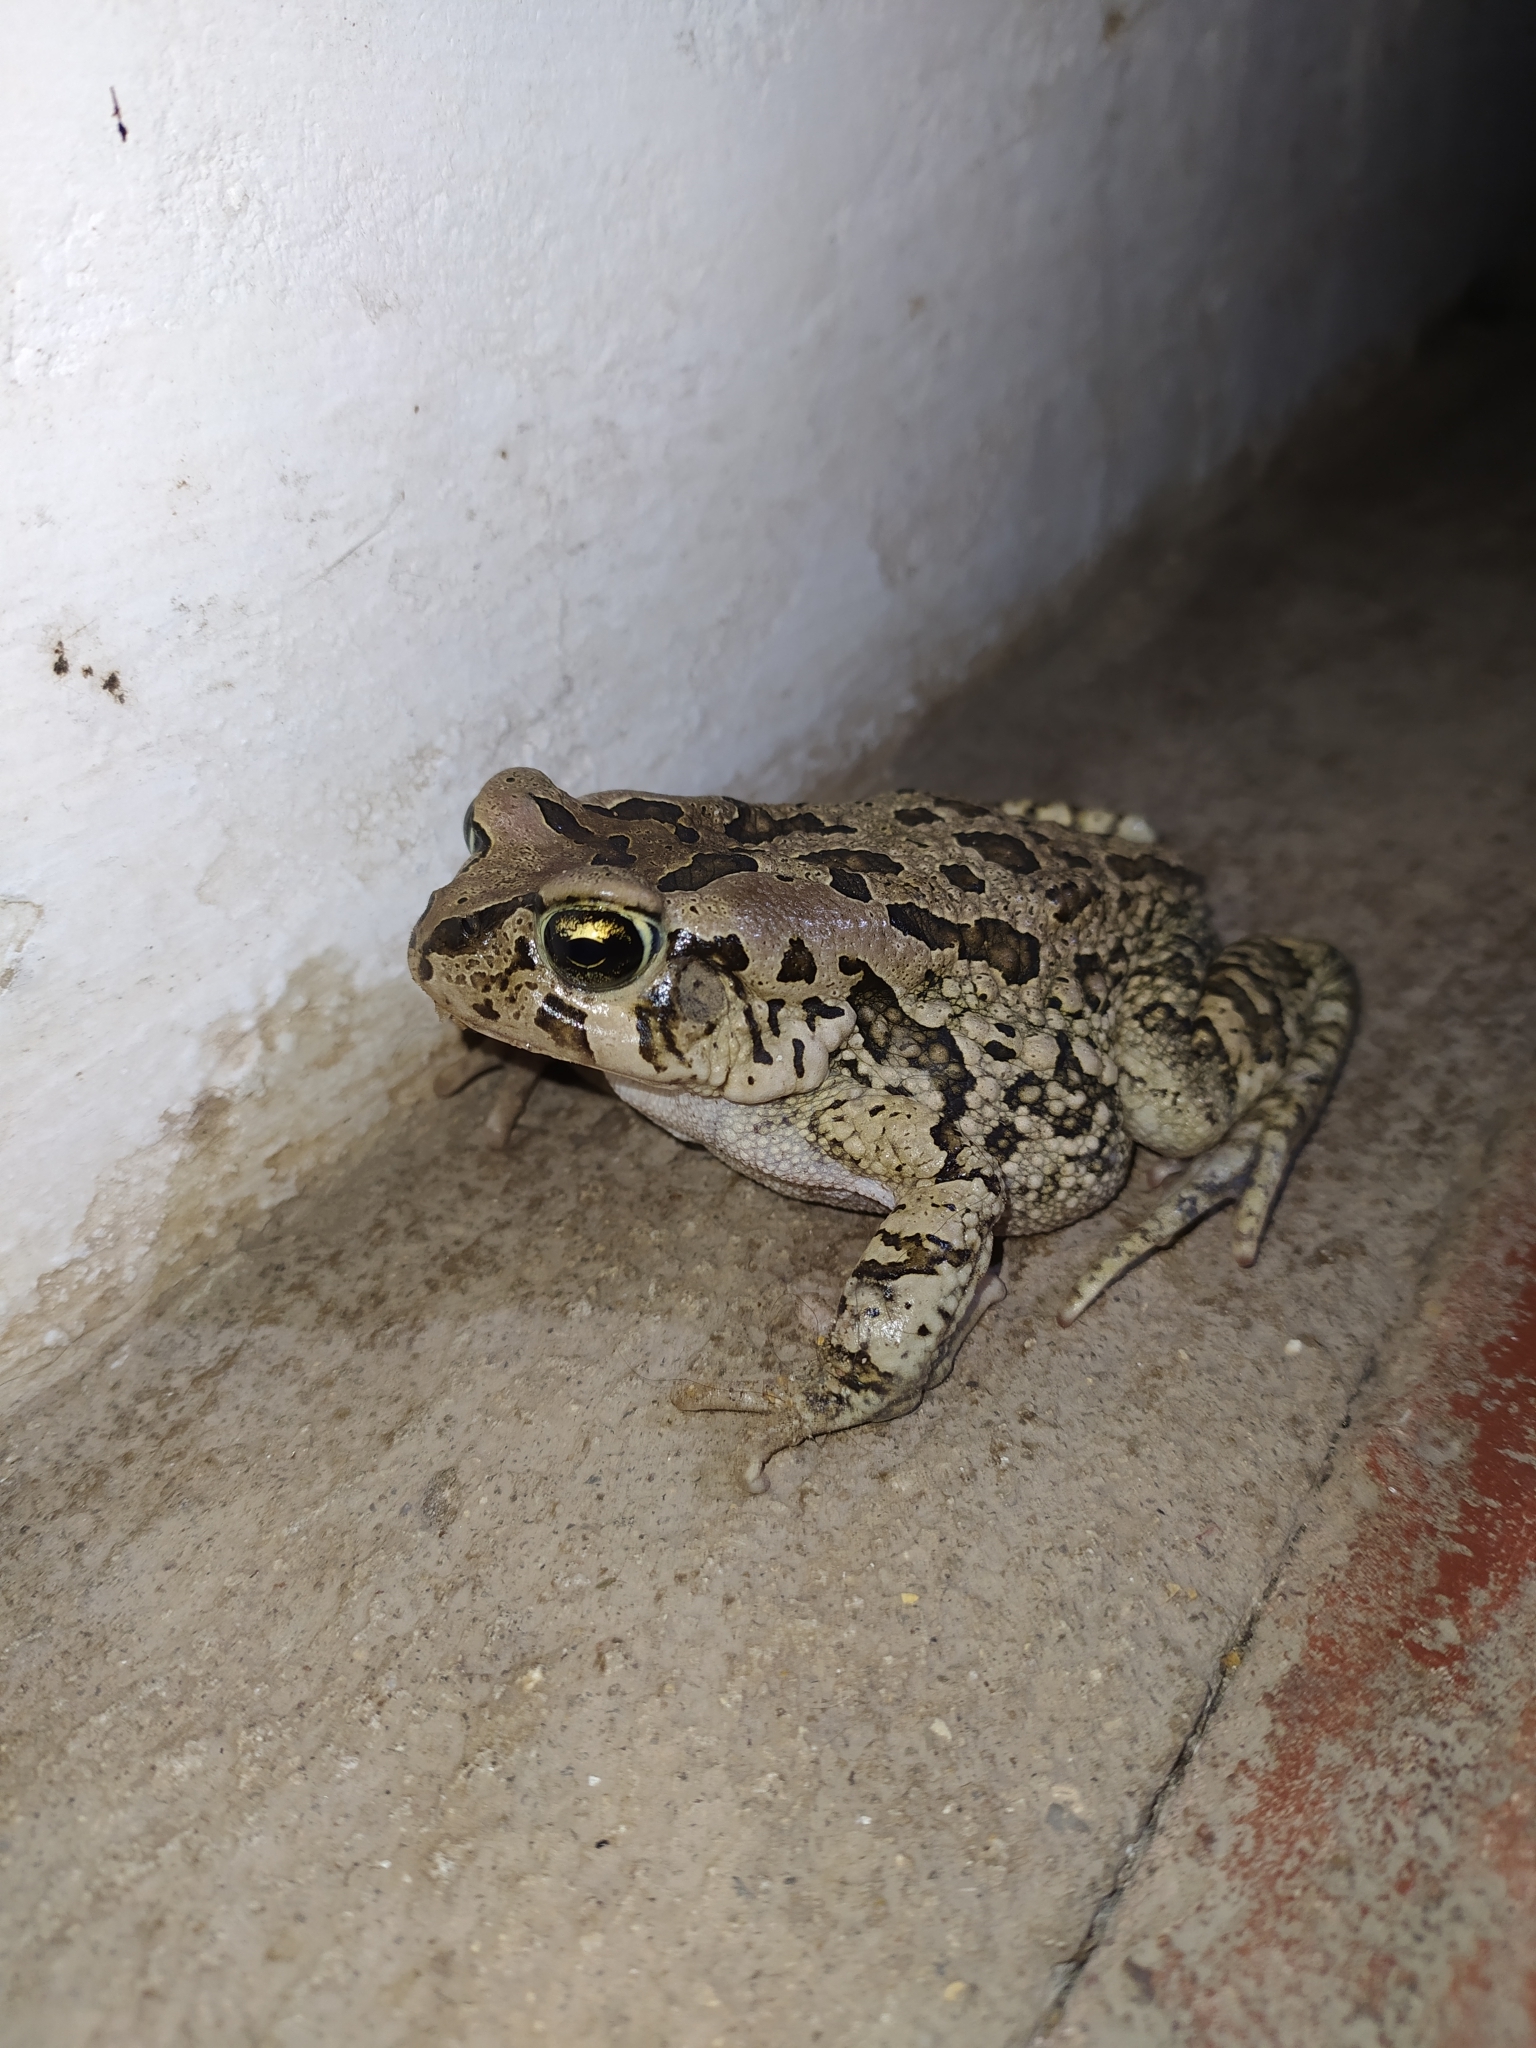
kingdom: Animalia
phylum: Chordata
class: Amphibia
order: Anura
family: Bufonidae
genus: Sclerophrys
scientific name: Sclerophrys capensis
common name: Ranger’s toad
